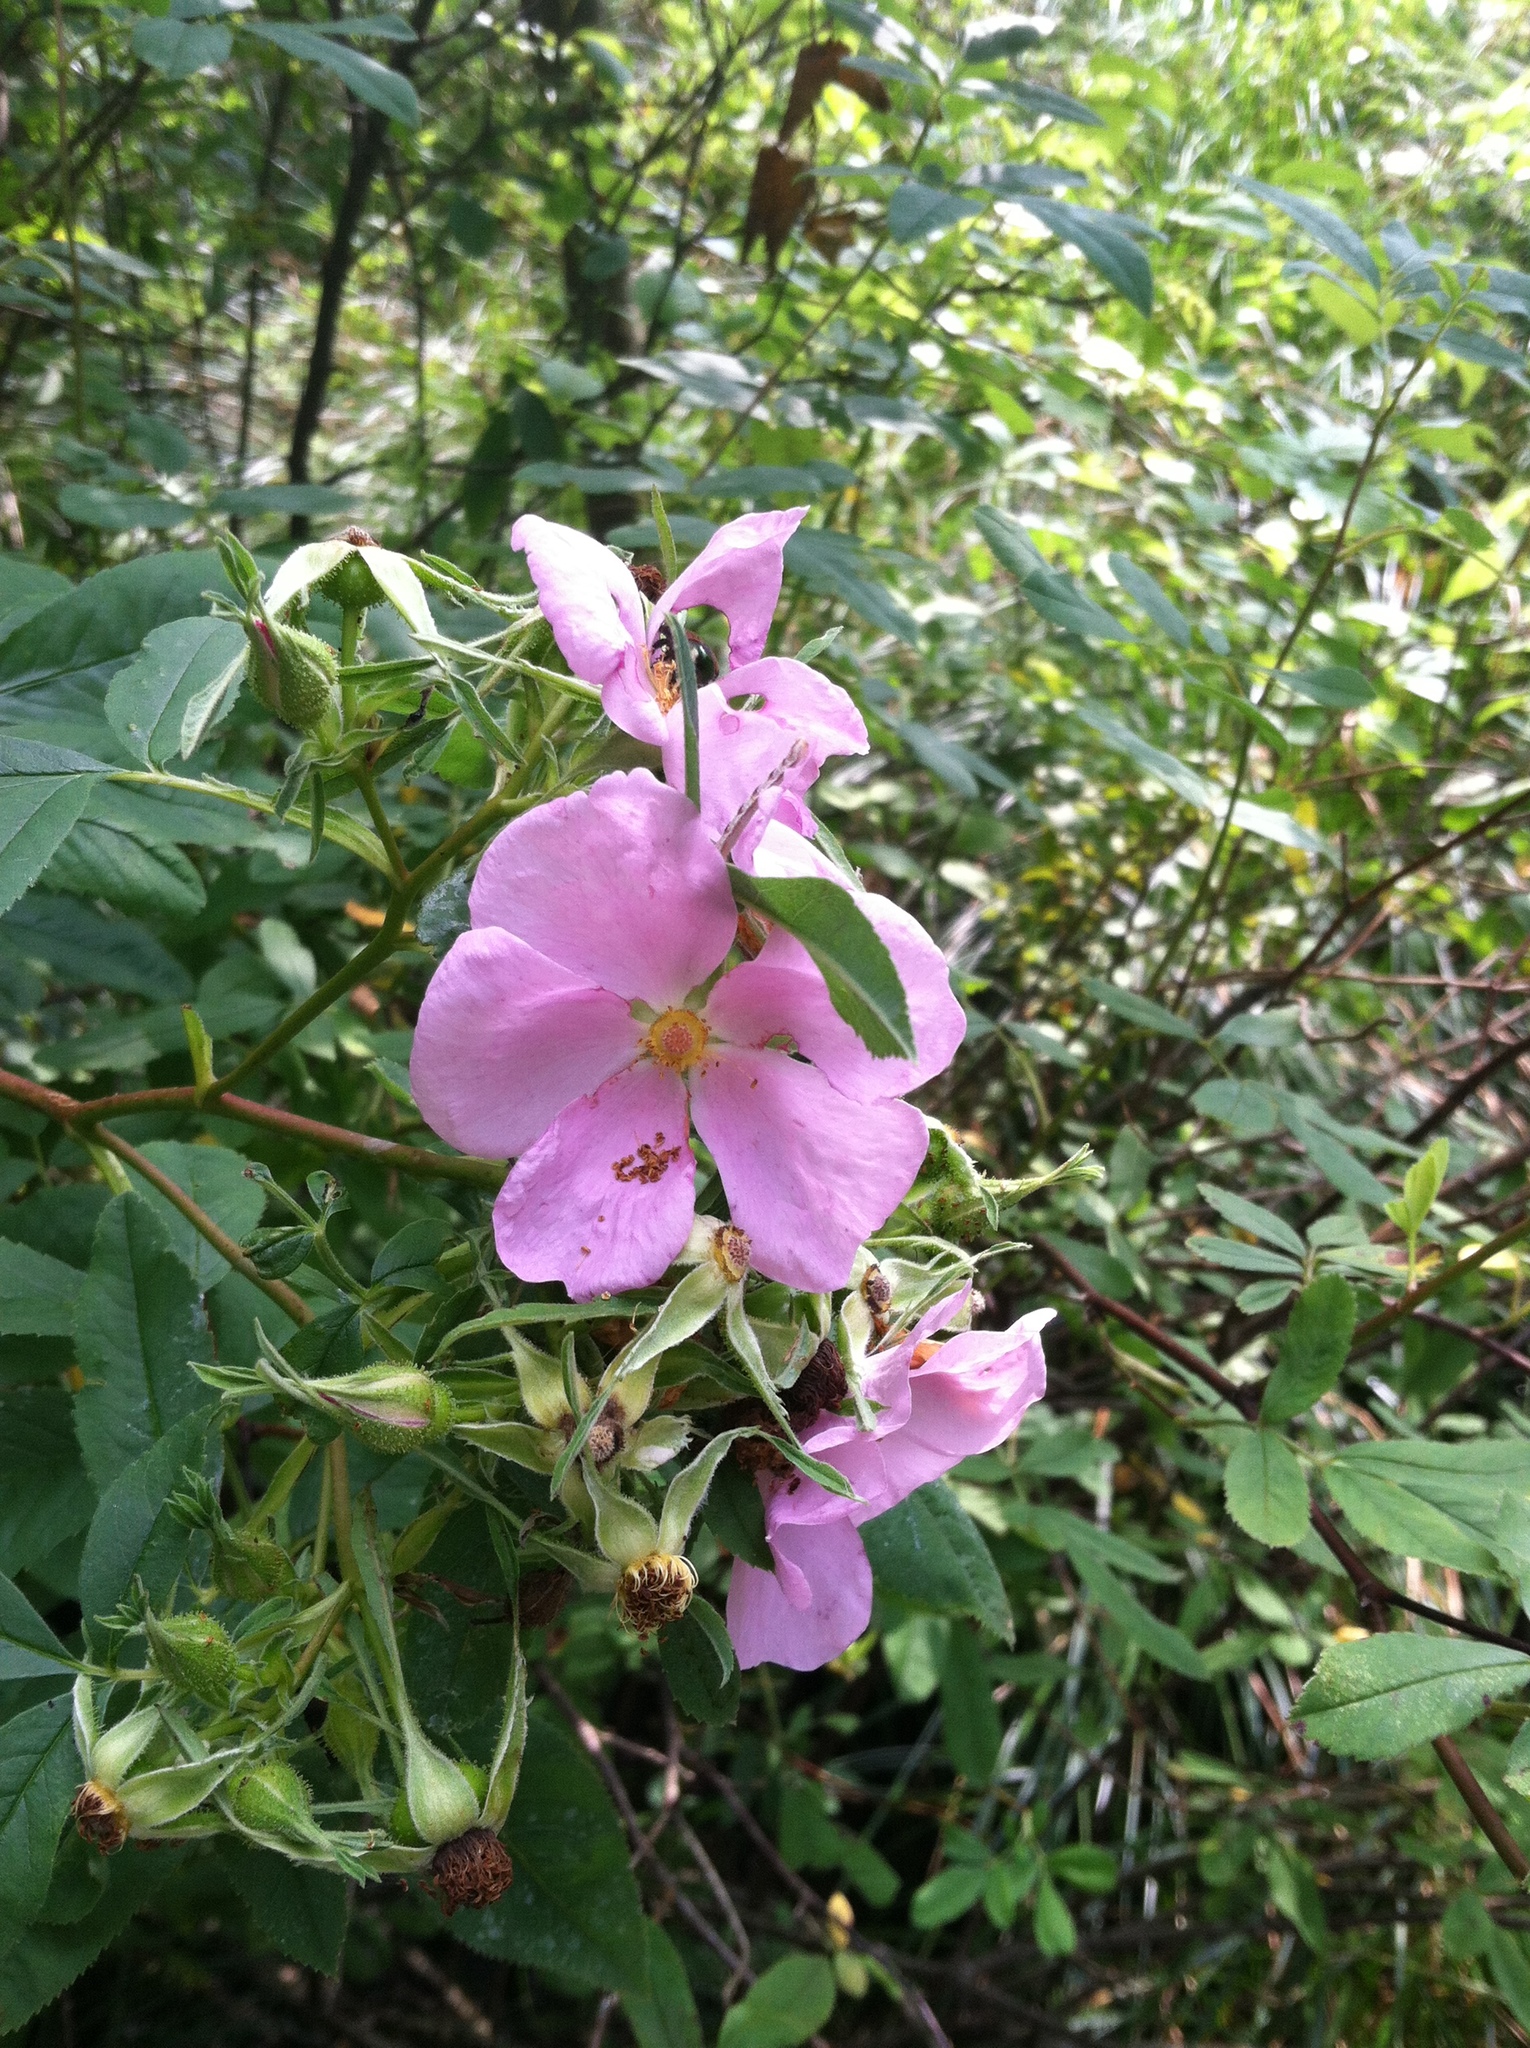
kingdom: Plantae
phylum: Tracheophyta
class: Magnoliopsida
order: Rosales
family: Rosaceae
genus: Rosa
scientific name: Rosa palustris
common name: Swamp rose
